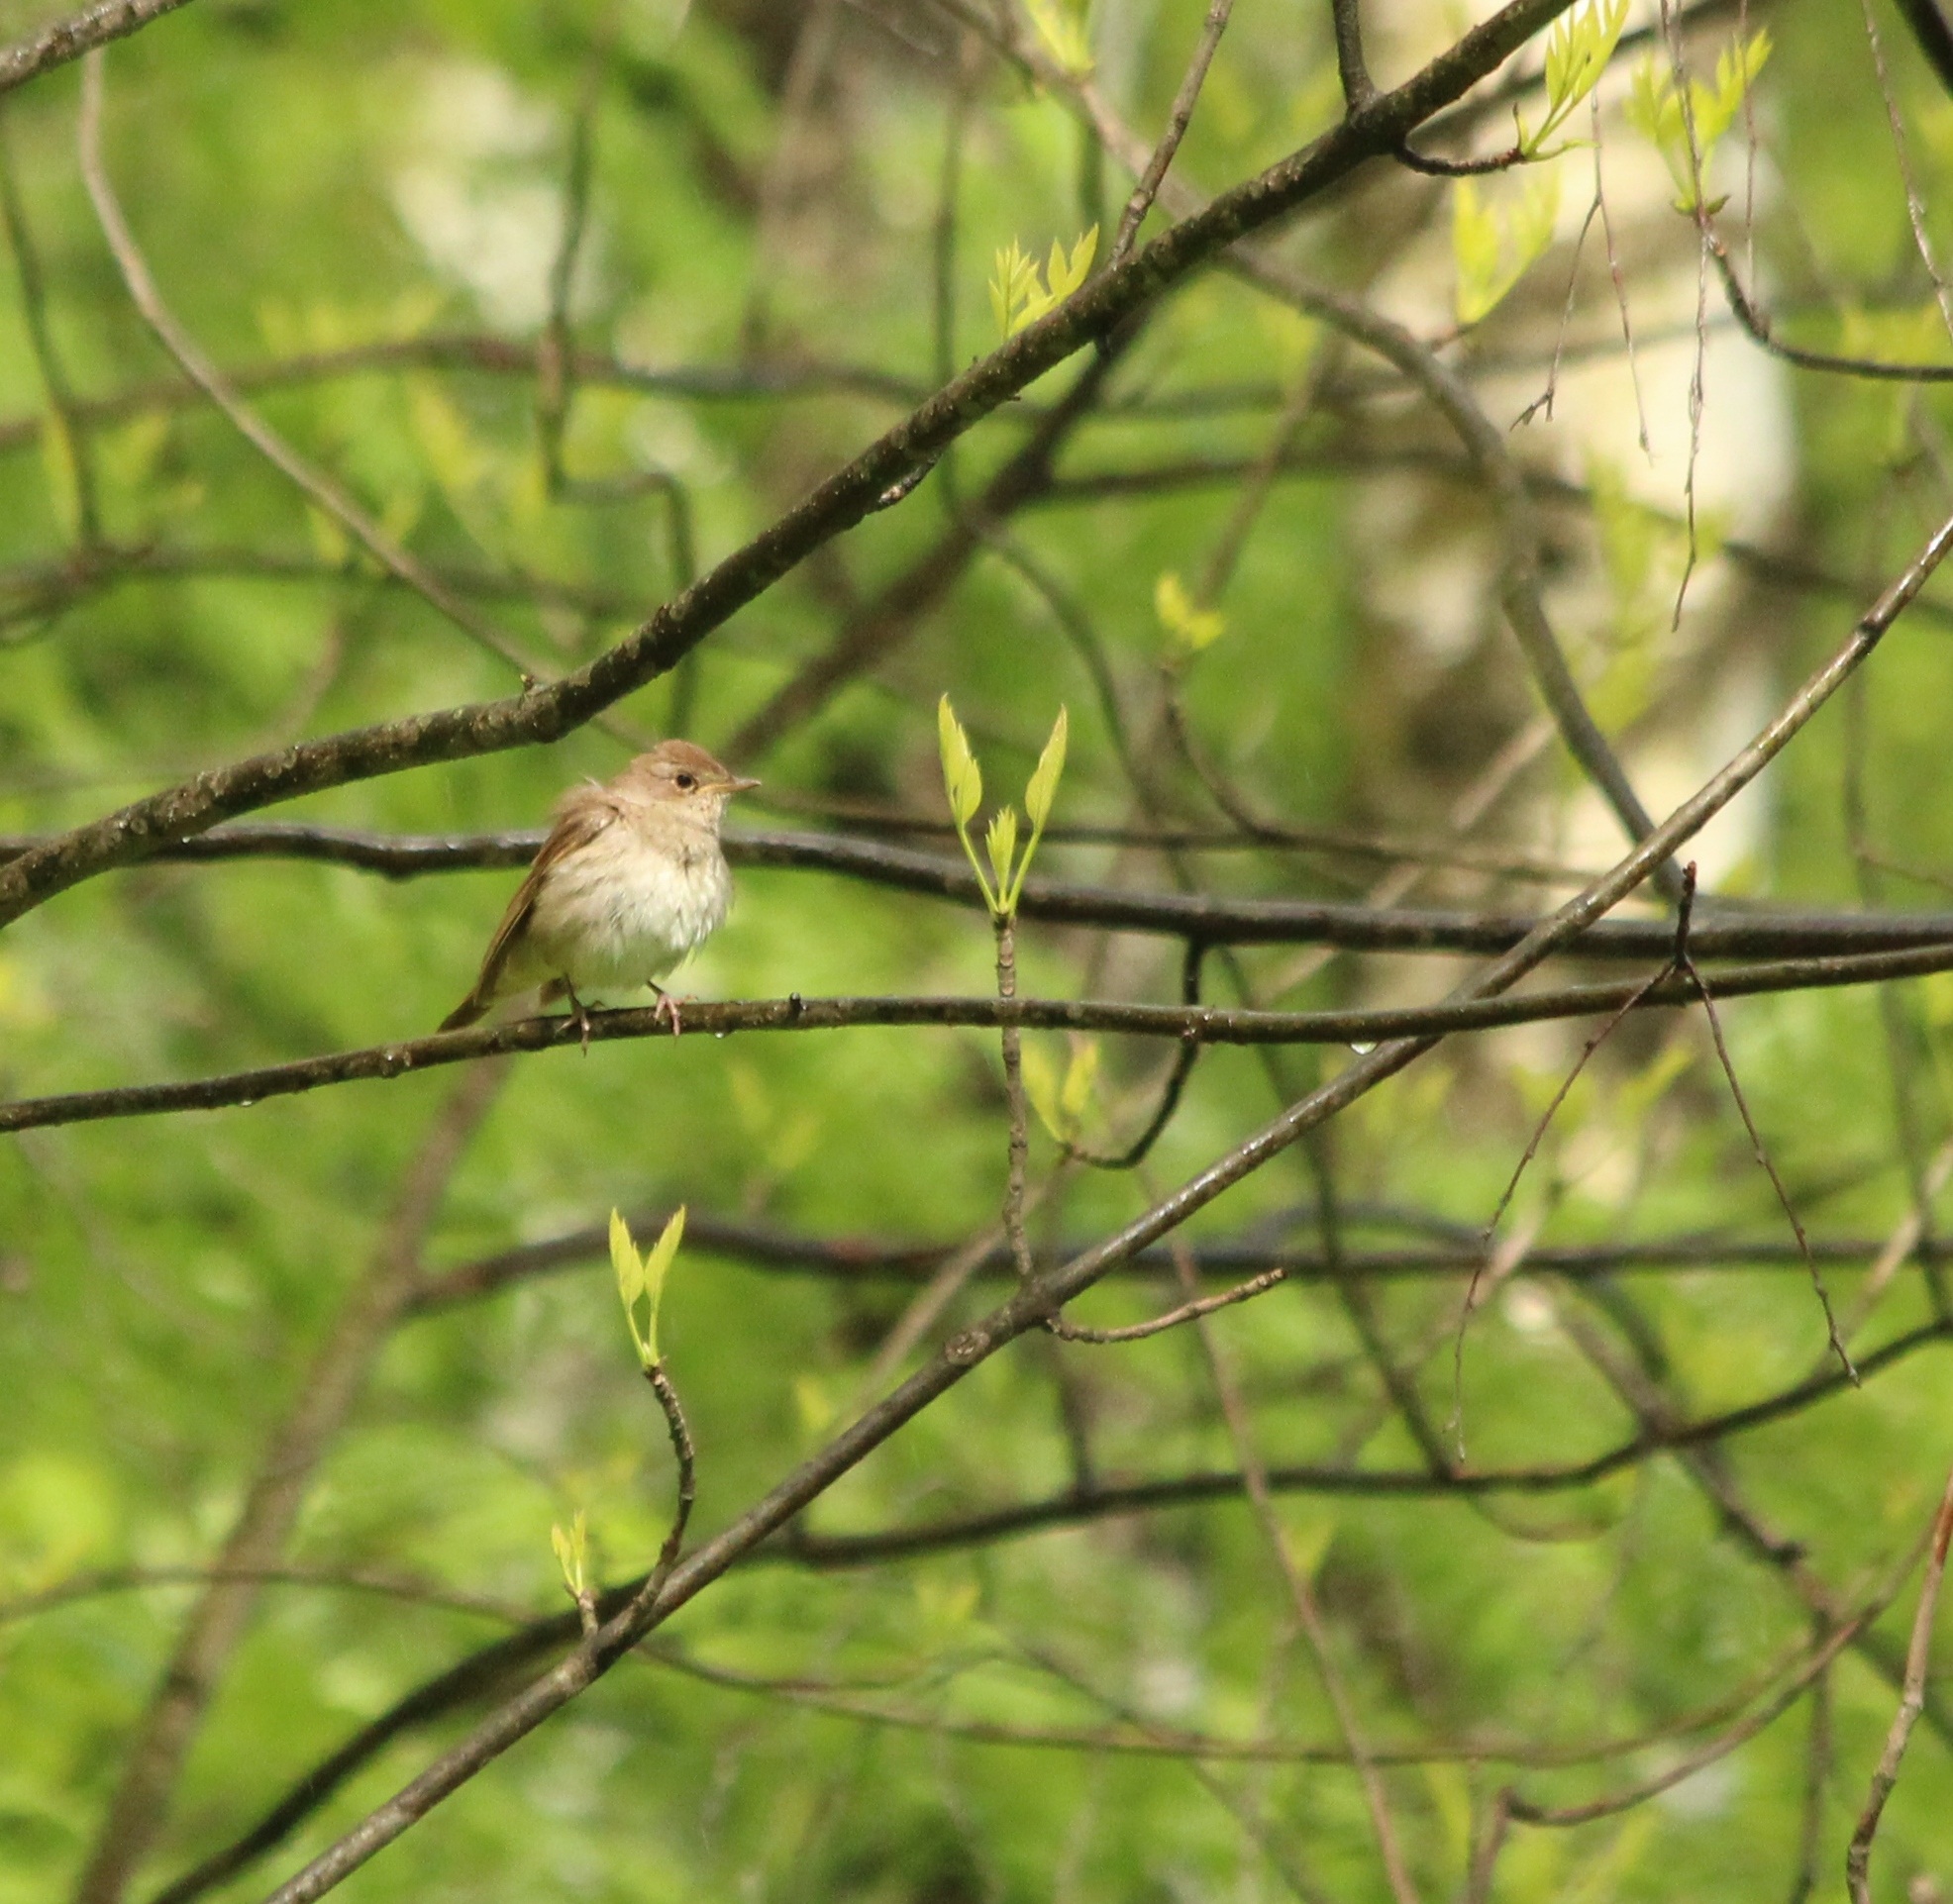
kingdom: Animalia
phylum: Chordata
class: Aves
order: Passeriformes
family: Muscicapidae
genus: Luscinia
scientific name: Luscinia luscinia
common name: Thrush nightingale
